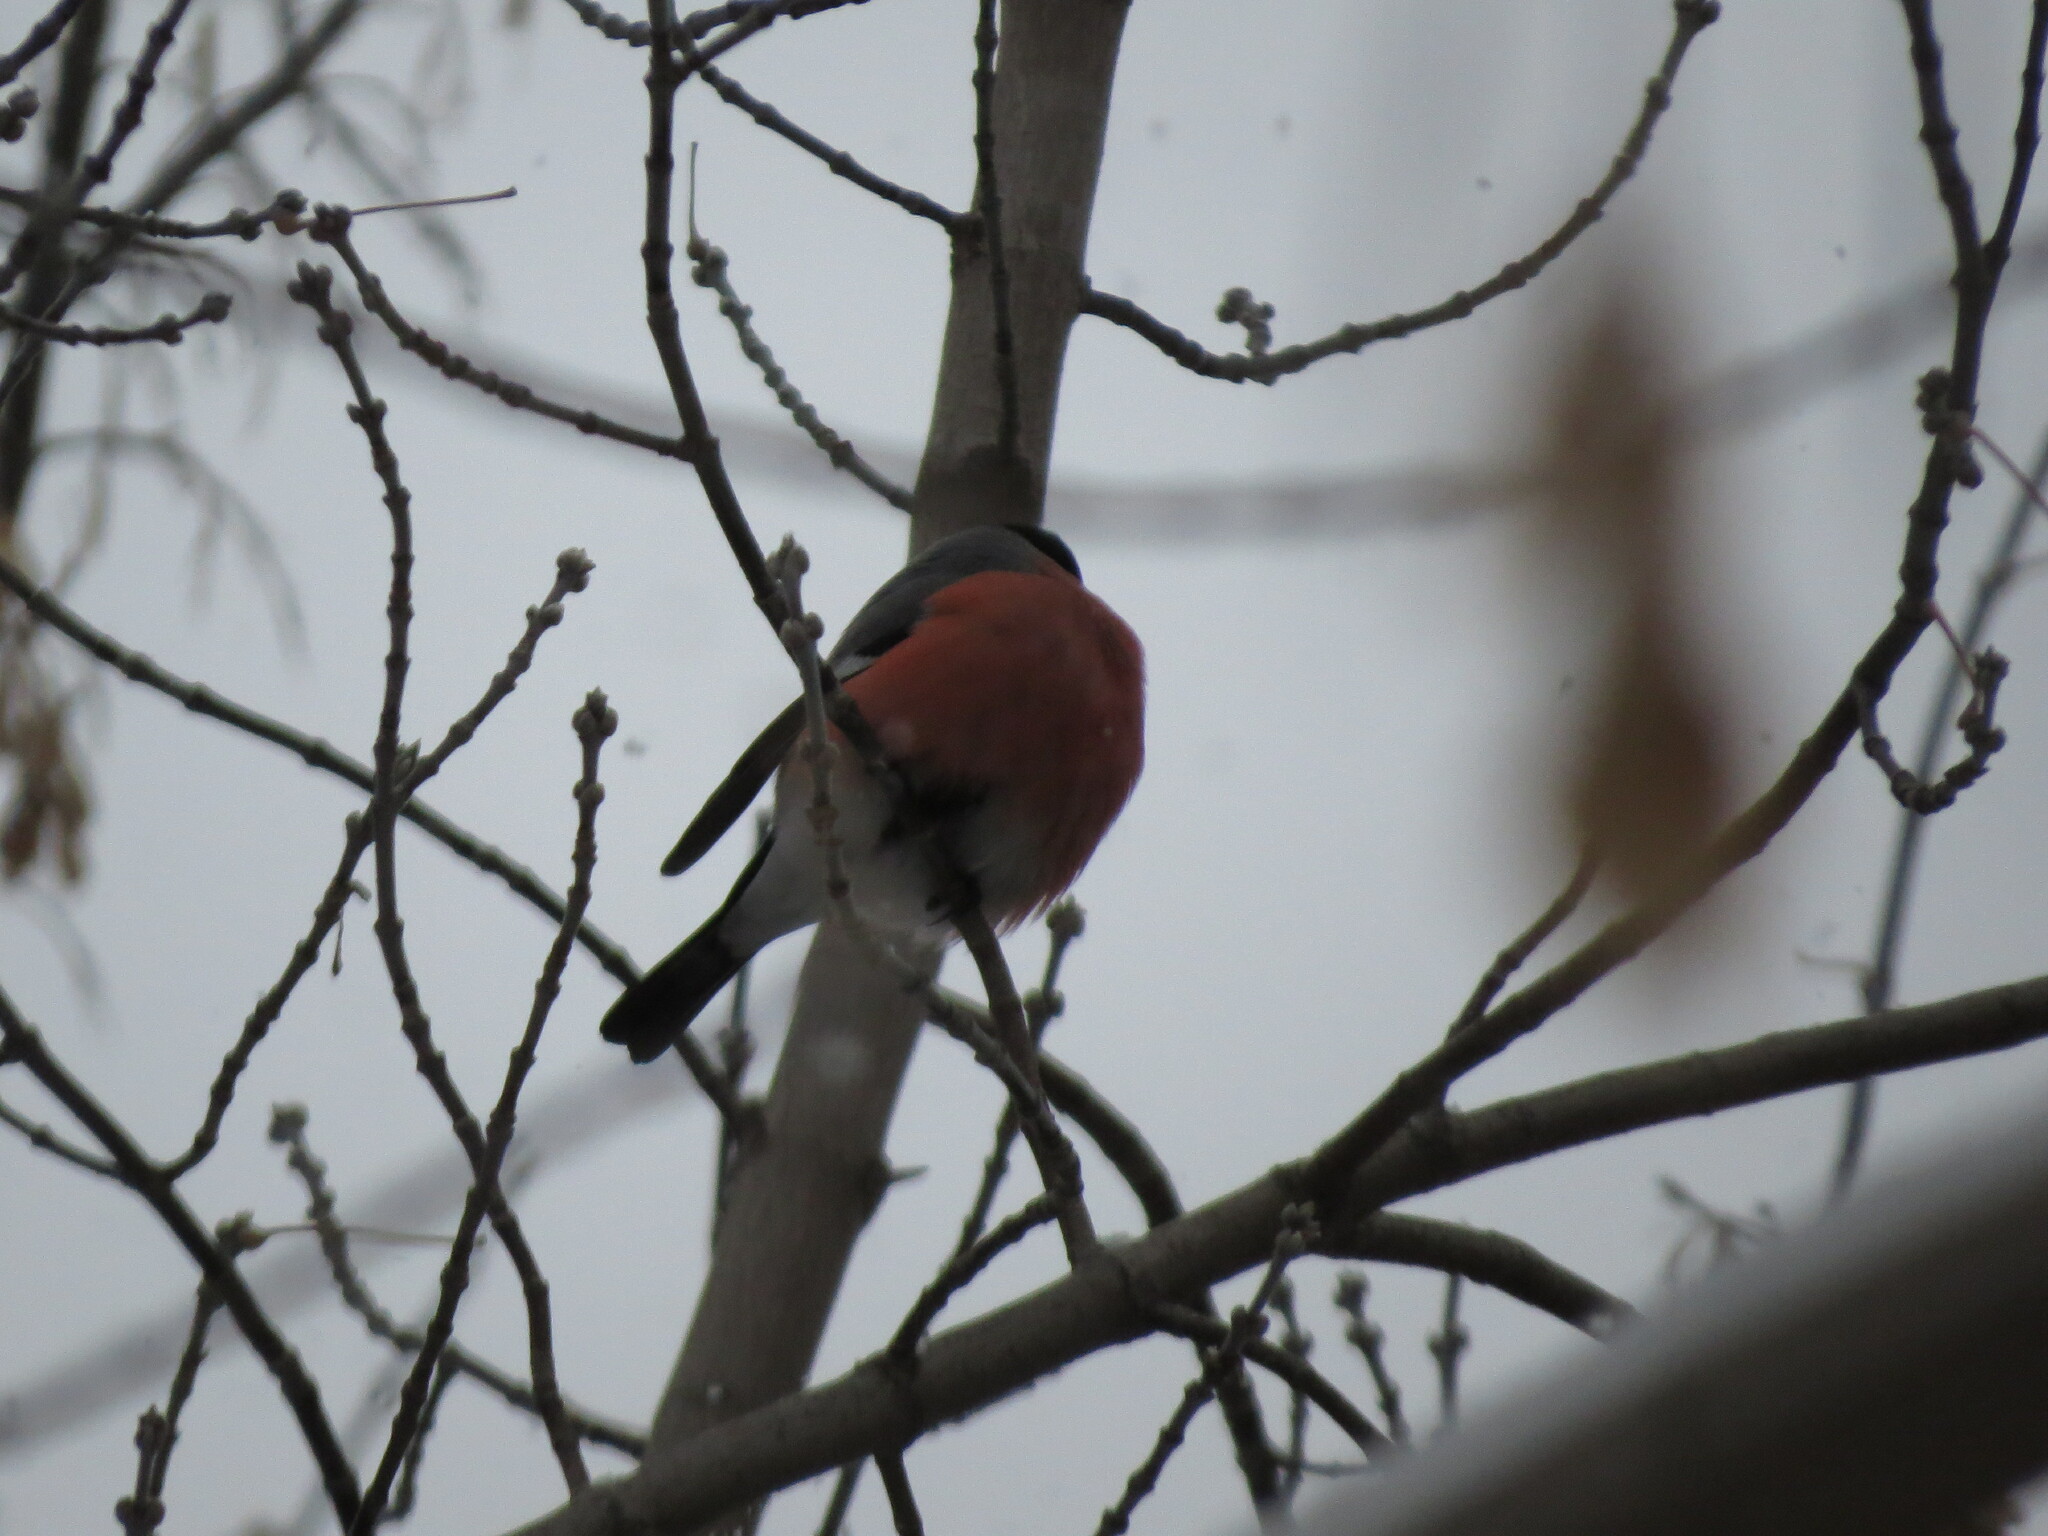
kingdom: Animalia
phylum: Chordata
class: Aves
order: Passeriformes
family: Fringillidae
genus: Pyrrhula
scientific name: Pyrrhula pyrrhula
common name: Eurasian bullfinch
